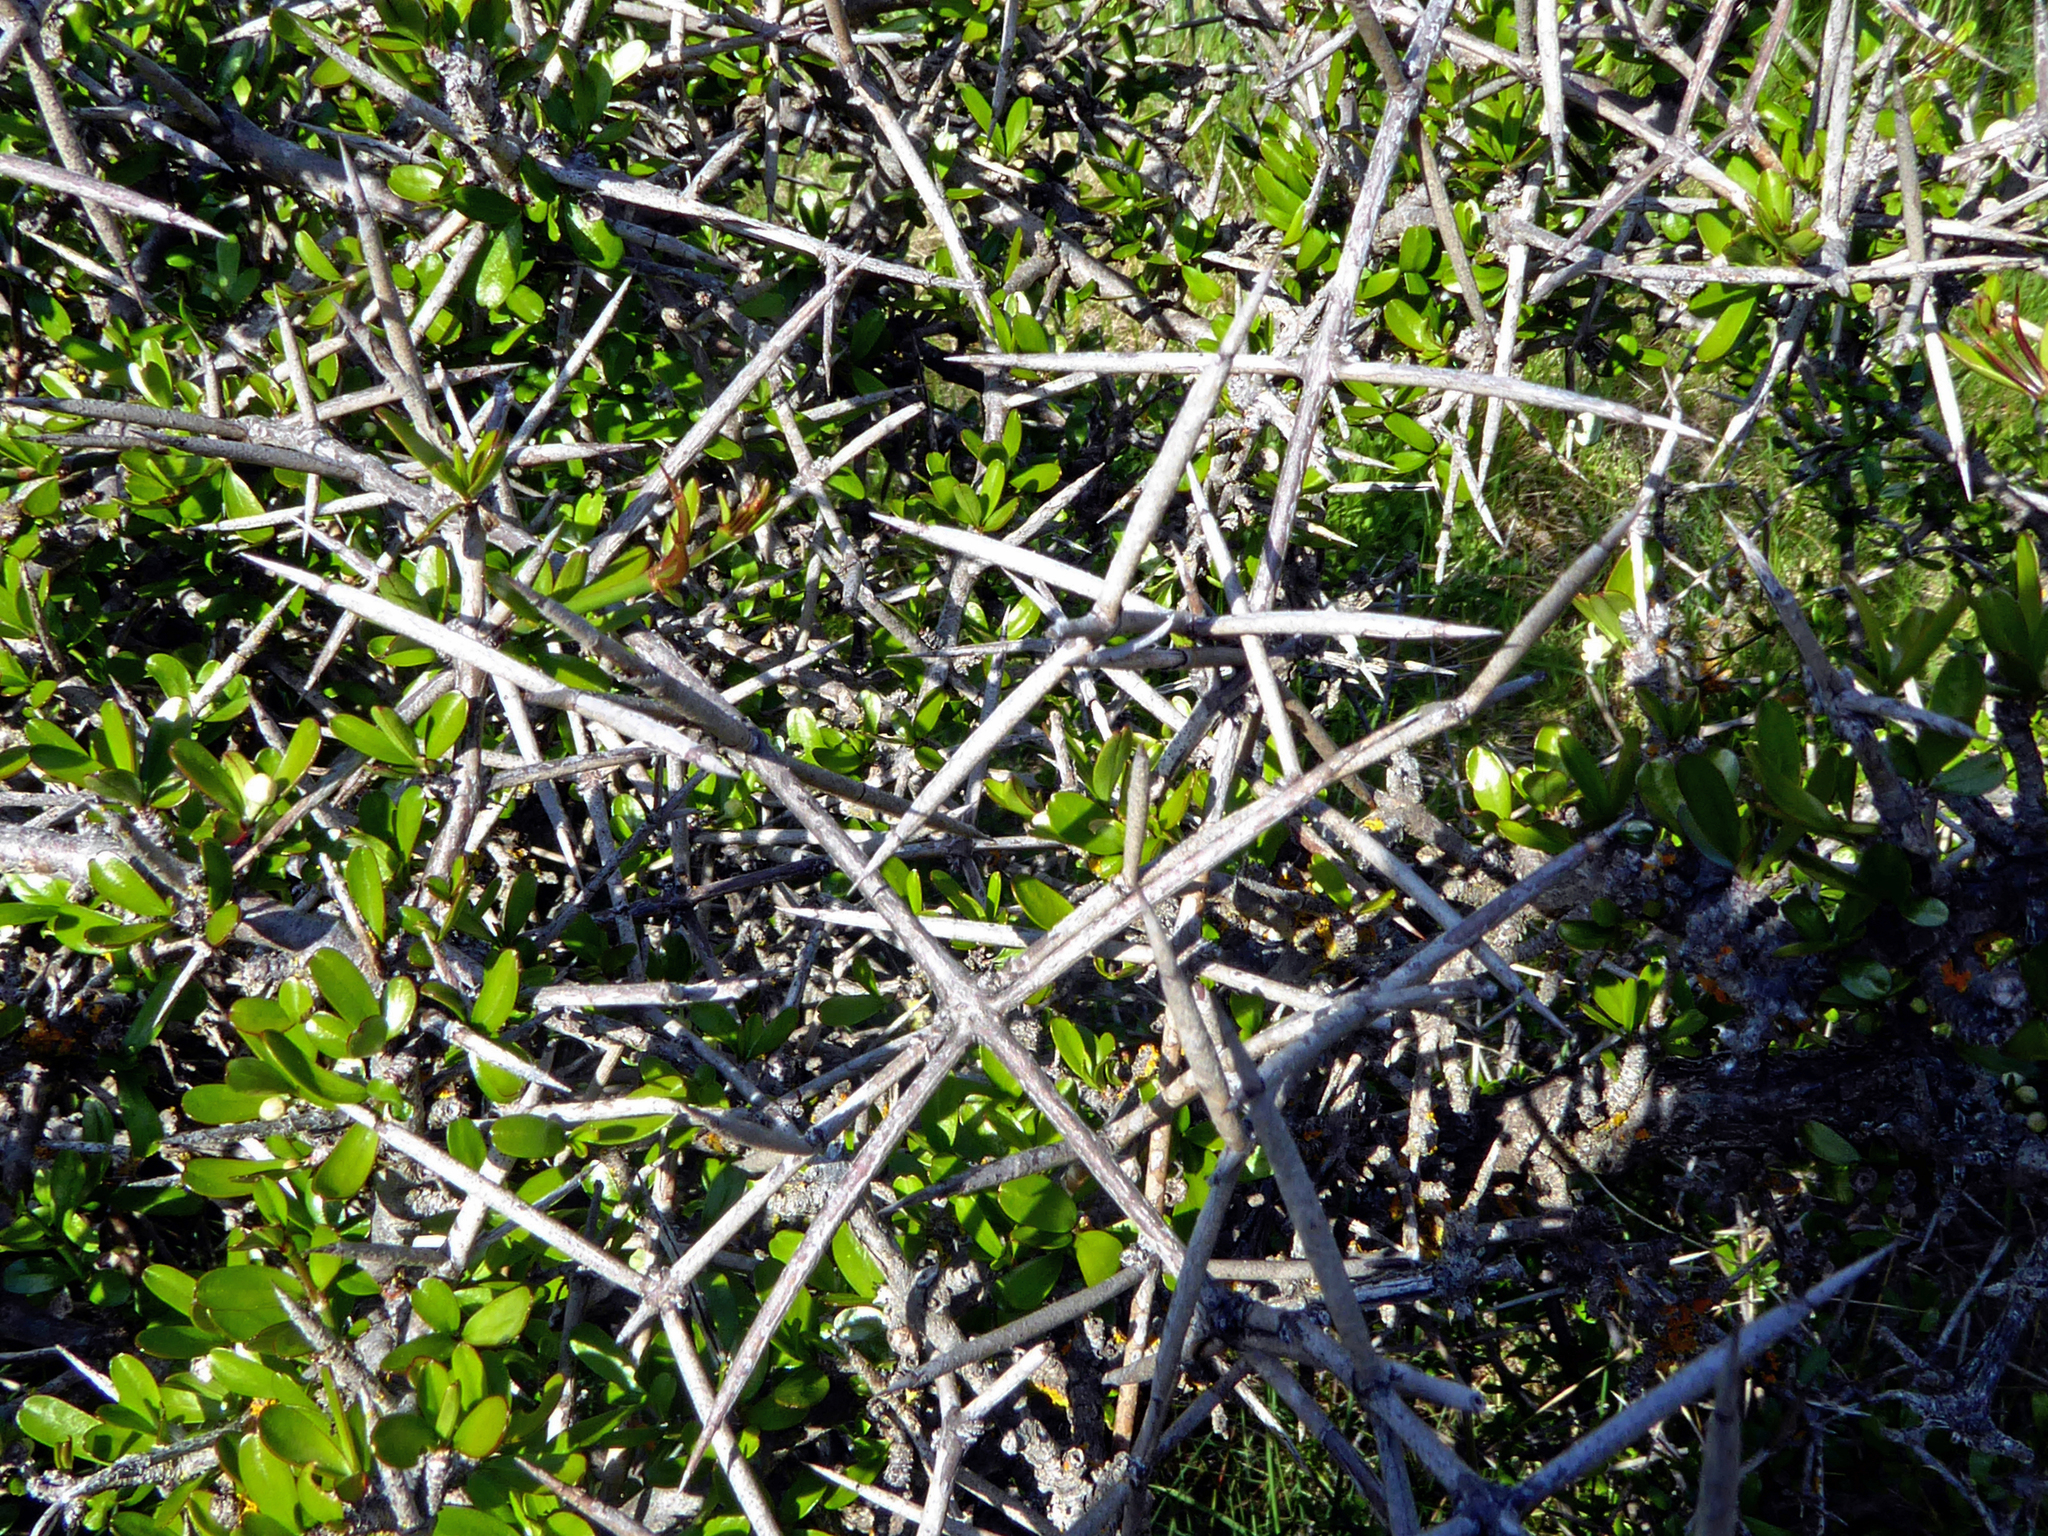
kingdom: Plantae
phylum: Tracheophyta
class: Magnoliopsida
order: Rosales
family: Rhamnaceae
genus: Discaria
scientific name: Discaria toumatou
